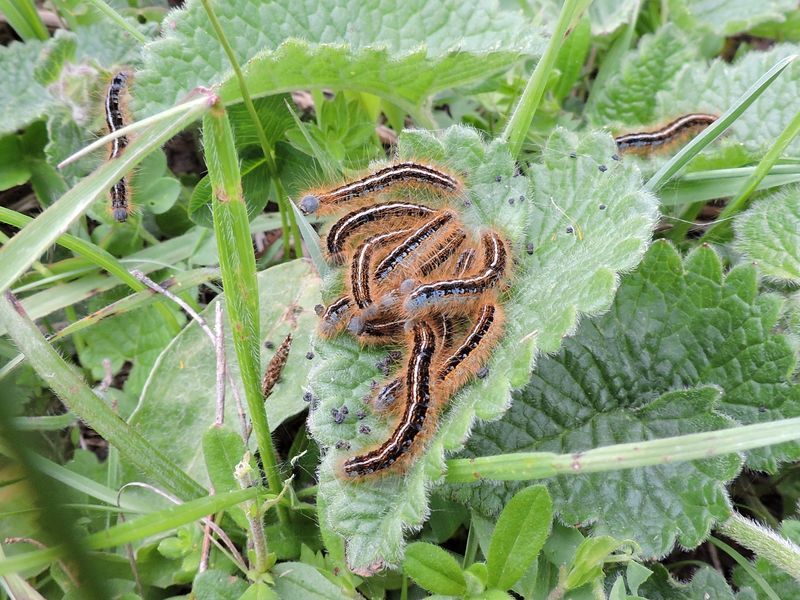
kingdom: Animalia
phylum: Arthropoda
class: Insecta
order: Lepidoptera
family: Lasiocampidae
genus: Malacosoma
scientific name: Malacosoma castrense
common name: Ground lackey
